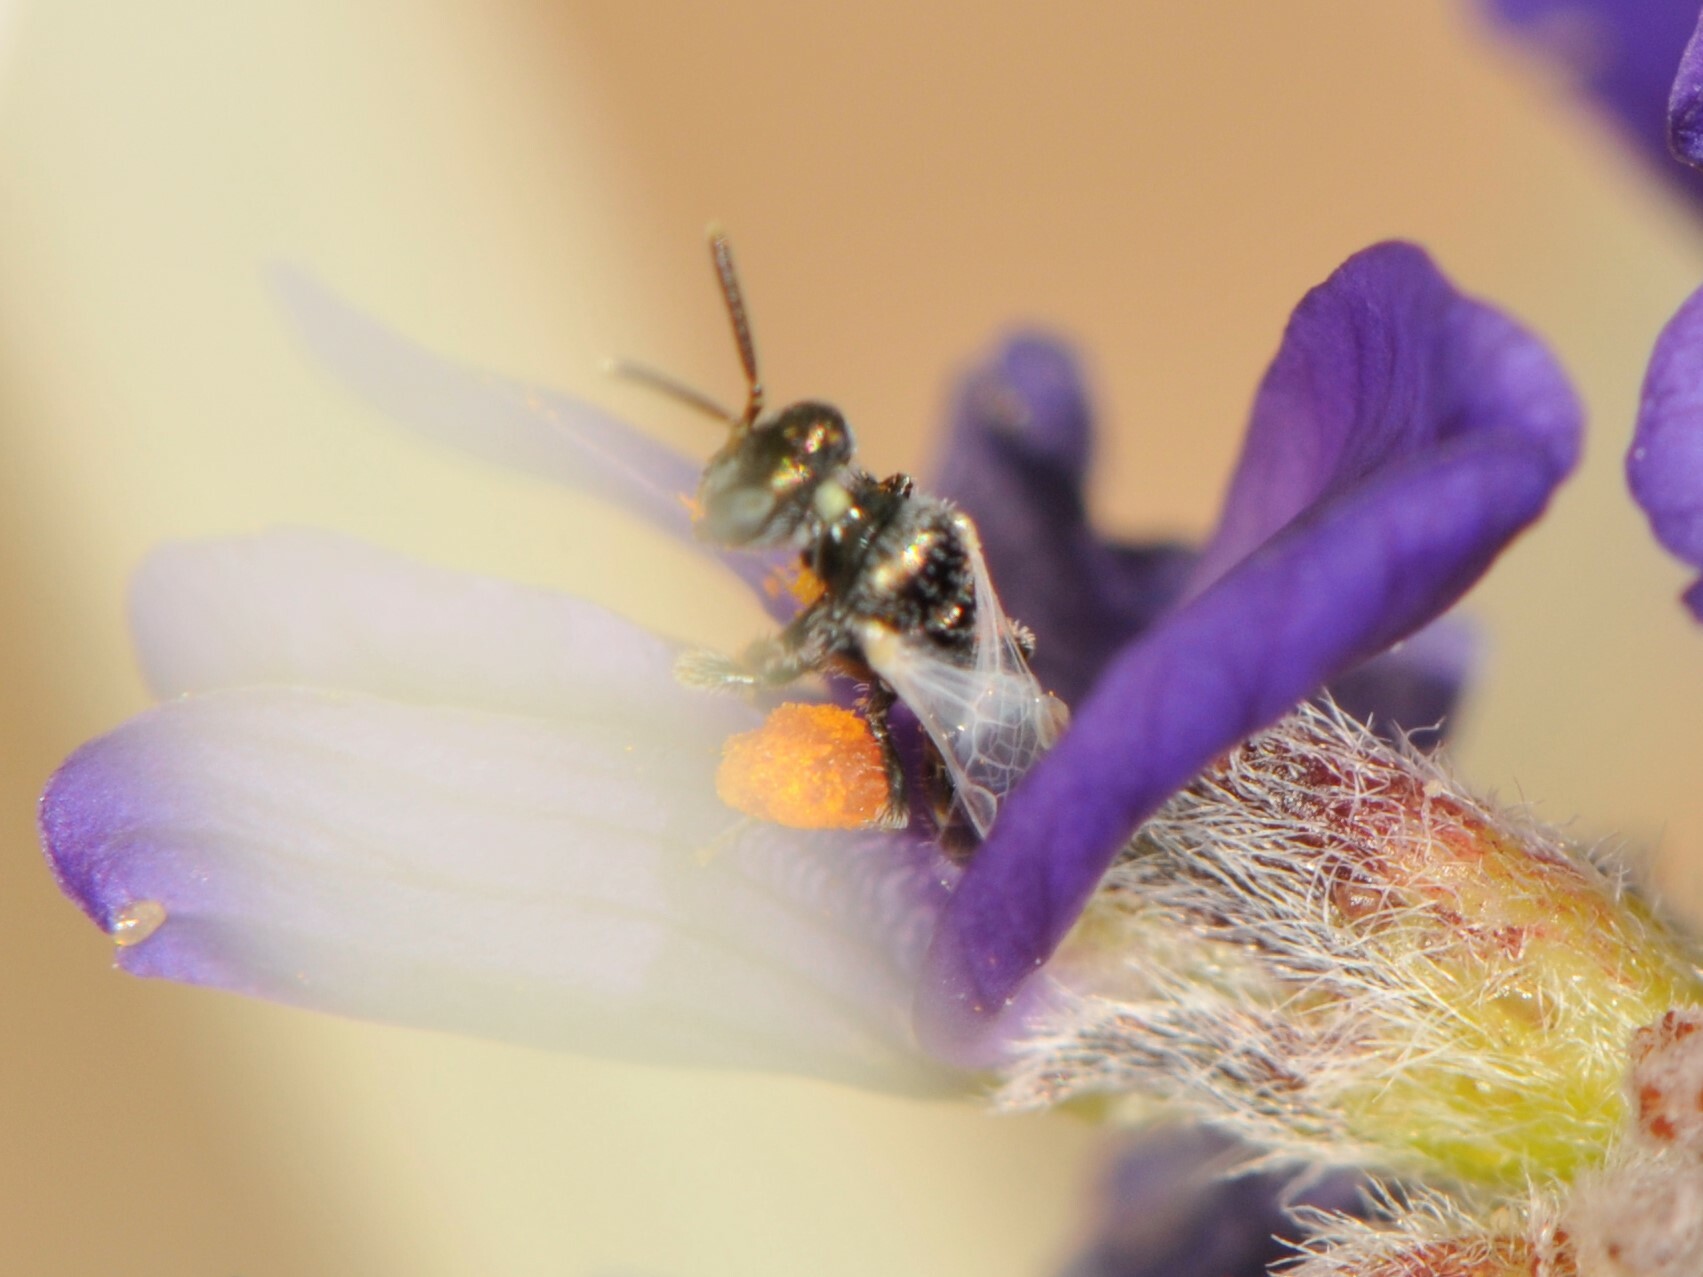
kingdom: Animalia
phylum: Arthropoda
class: Insecta
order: Hymenoptera
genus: Perditella
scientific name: Perditella
